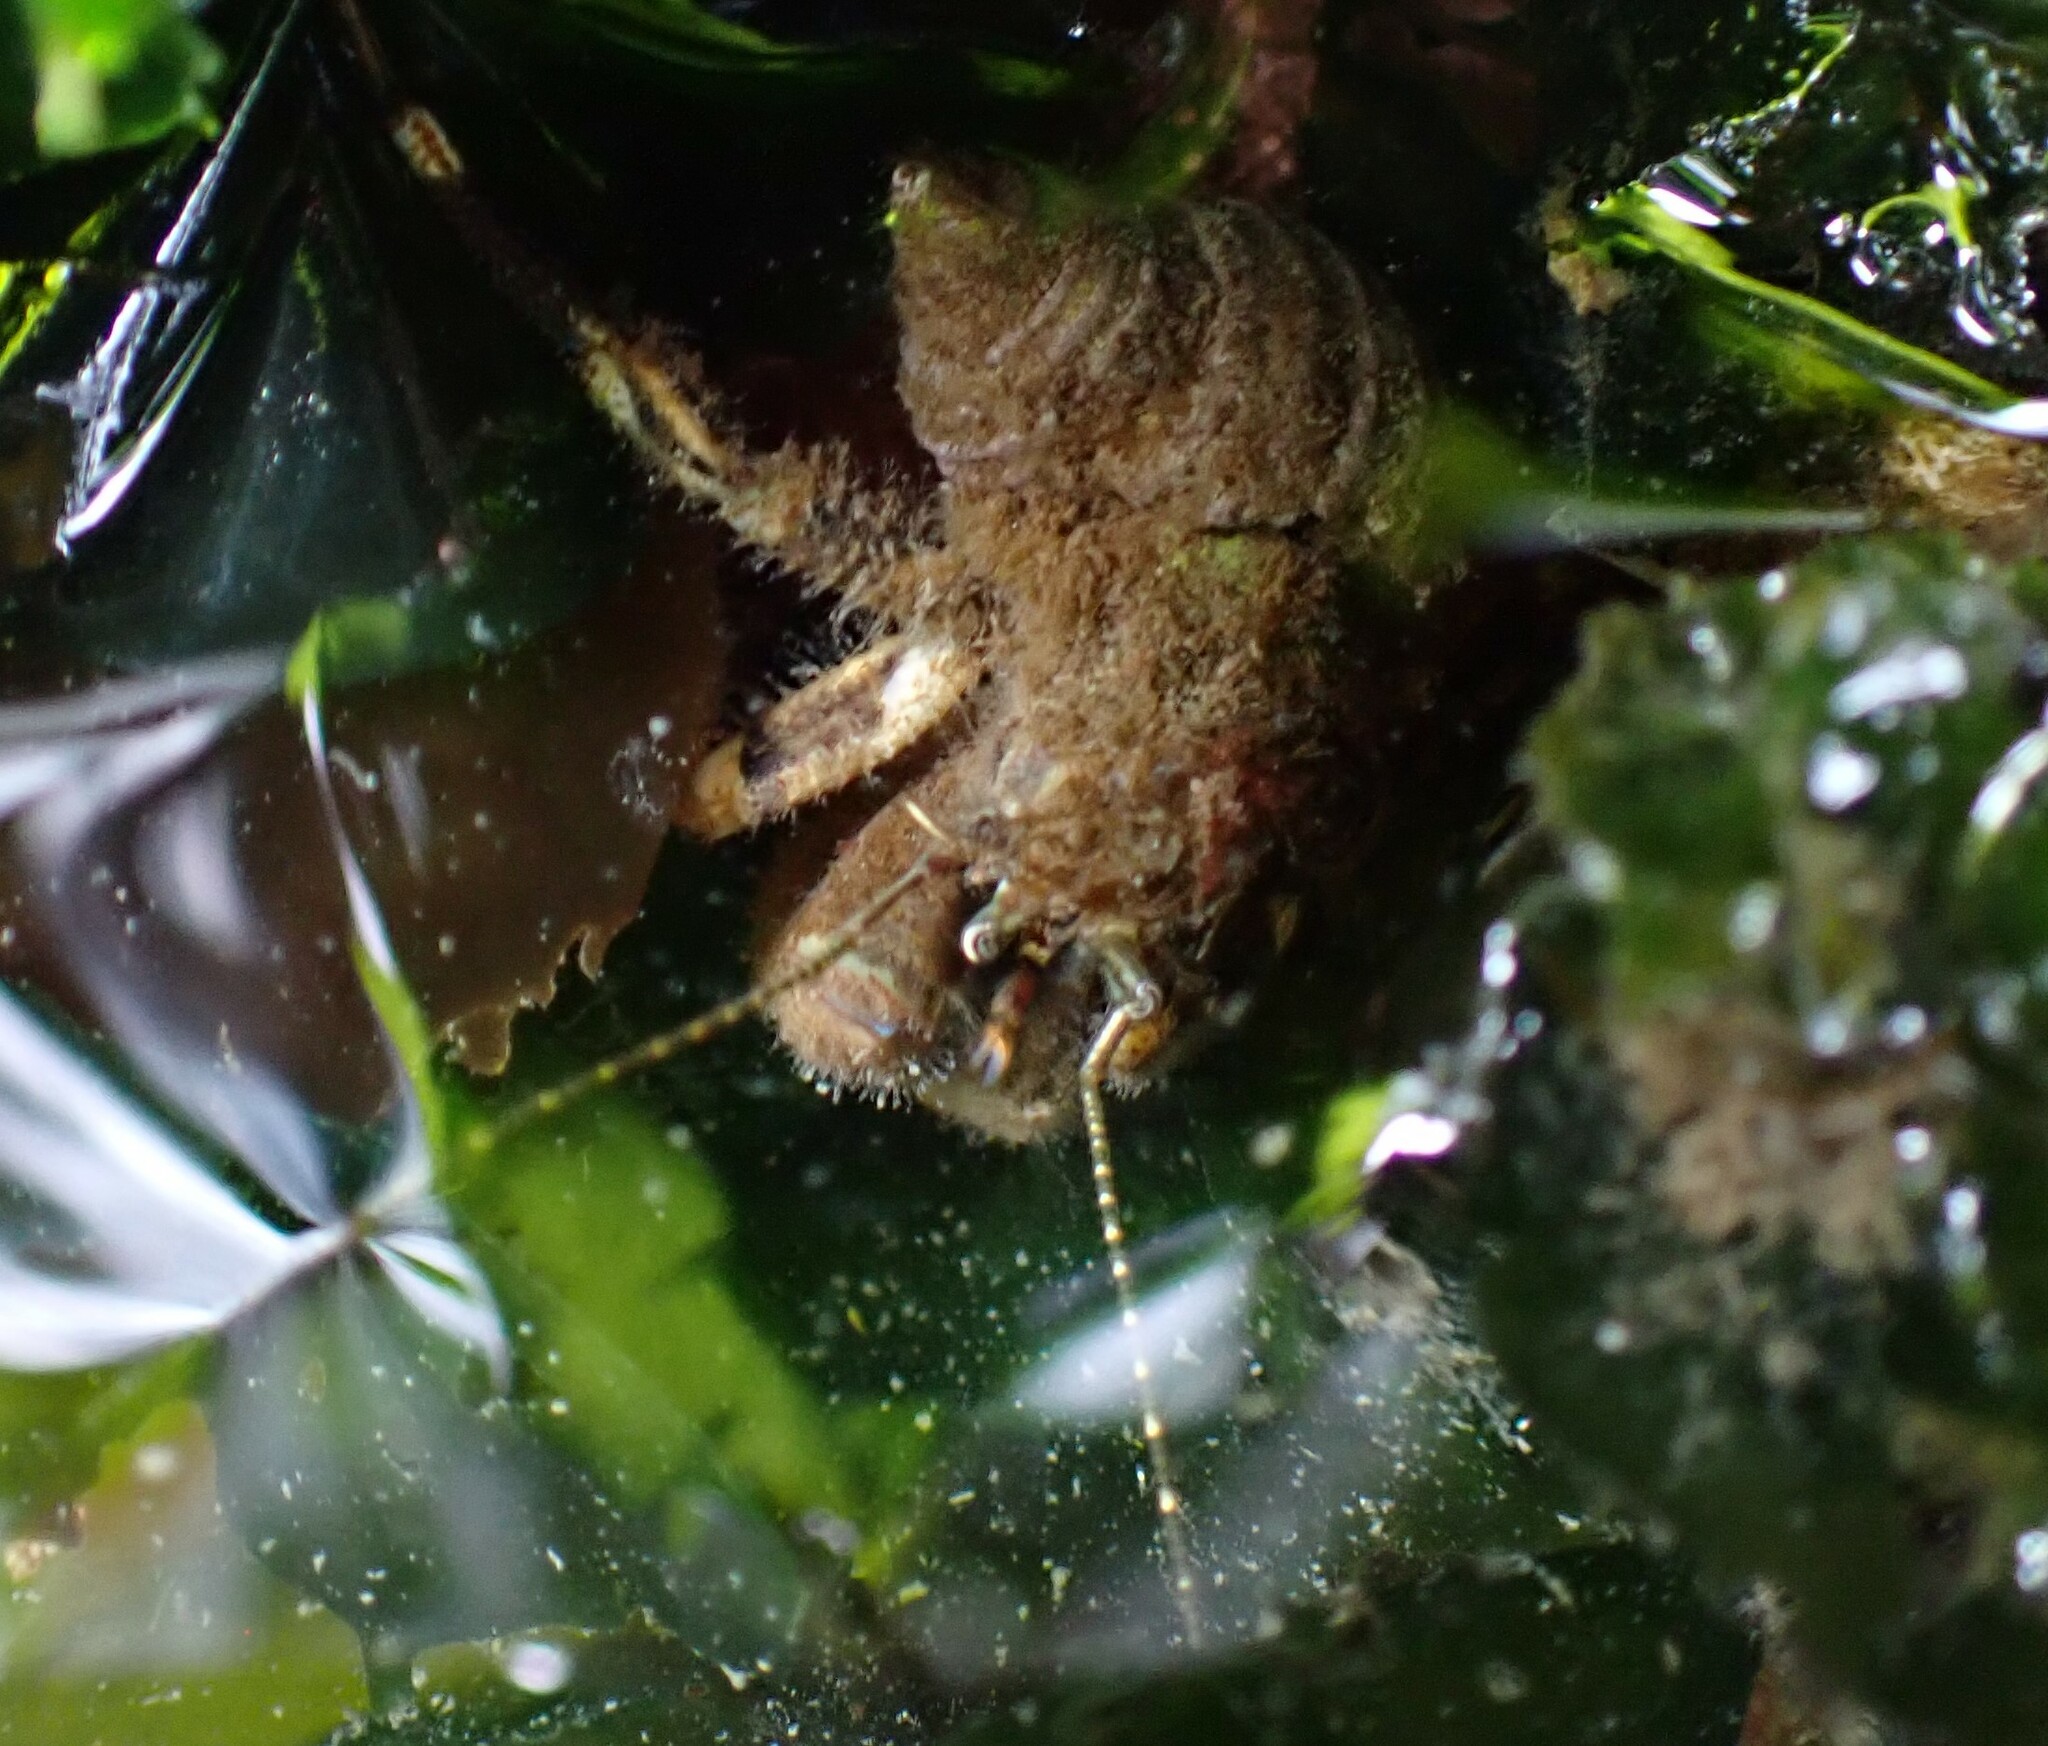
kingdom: Animalia
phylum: Arthropoda
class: Malacostraca
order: Decapoda
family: Paguridae
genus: Pagurus
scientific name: Pagurus hirsutiusculus
